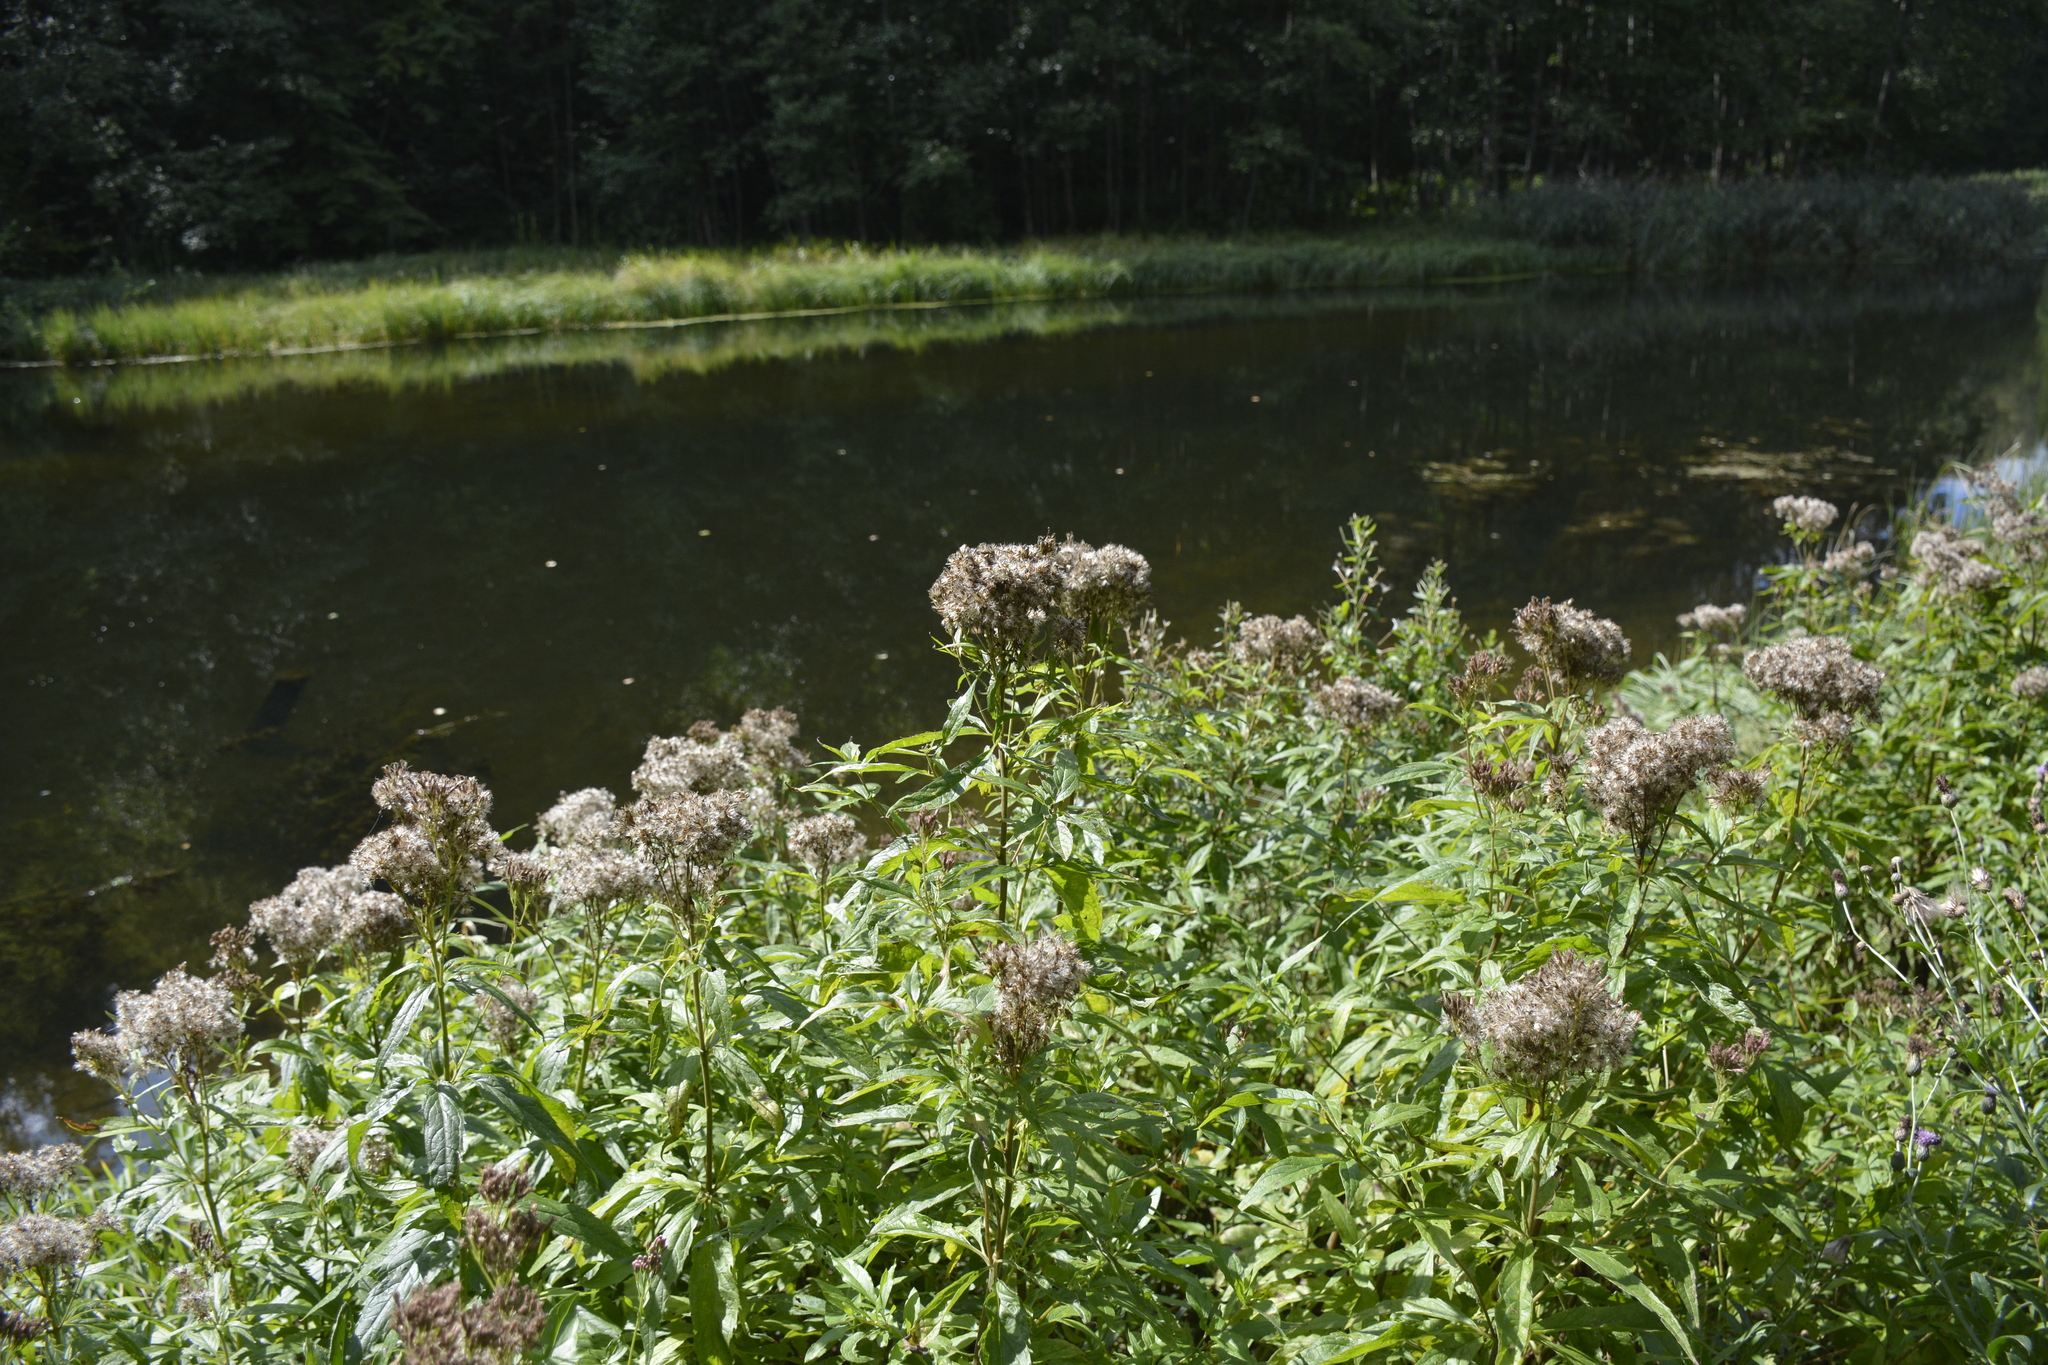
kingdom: Plantae
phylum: Tracheophyta
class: Magnoliopsida
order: Asterales
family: Asteraceae
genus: Eupatorium
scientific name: Eupatorium cannabinum
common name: Hemp-agrimony
